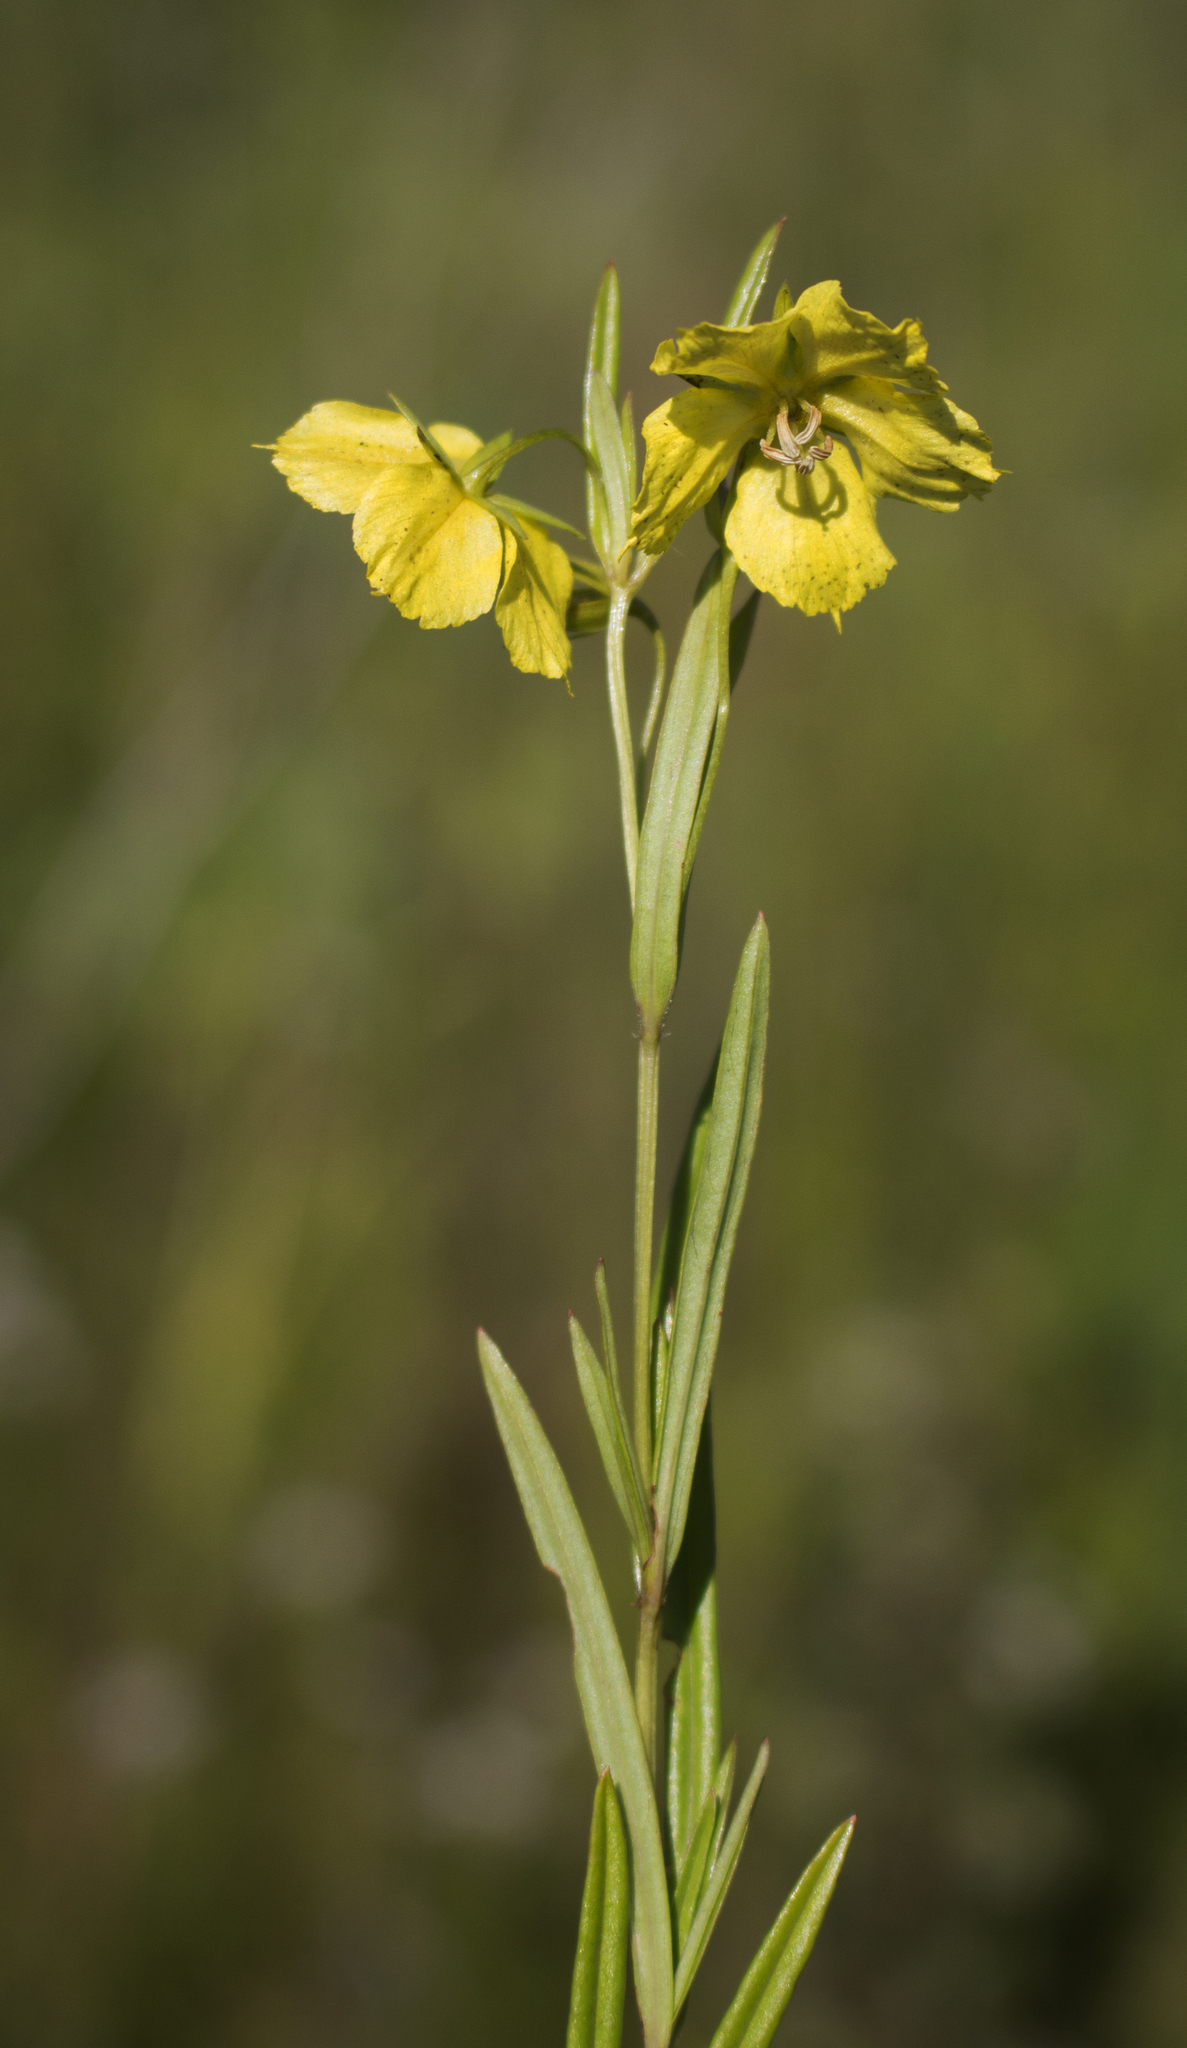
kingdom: Plantae
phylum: Tracheophyta
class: Magnoliopsida
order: Ericales
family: Primulaceae
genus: Lysimachia
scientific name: Lysimachia quadriflora
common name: Four-flowered loosestrife
